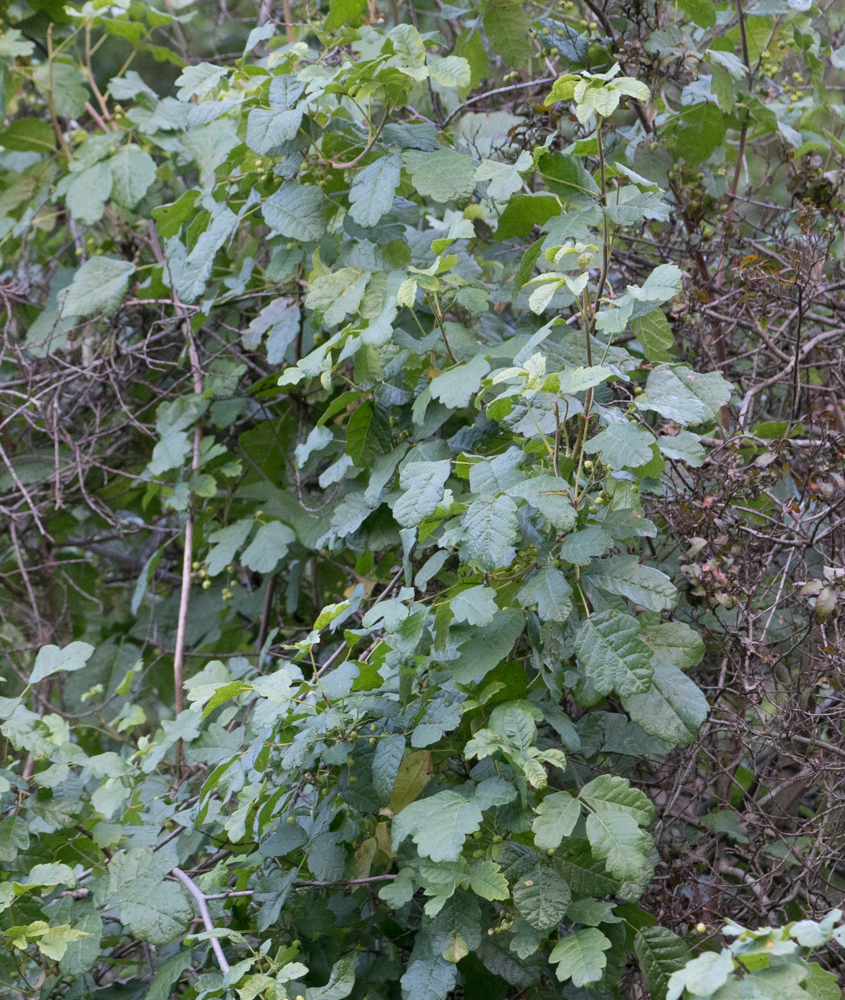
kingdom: Plantae
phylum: Tracheophyta
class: Magnoliopsida
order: Sapindales
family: Anacardiaceae
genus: Toxicodendron
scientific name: Toxicodendron diversilobum
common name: Pacific poison-oak
